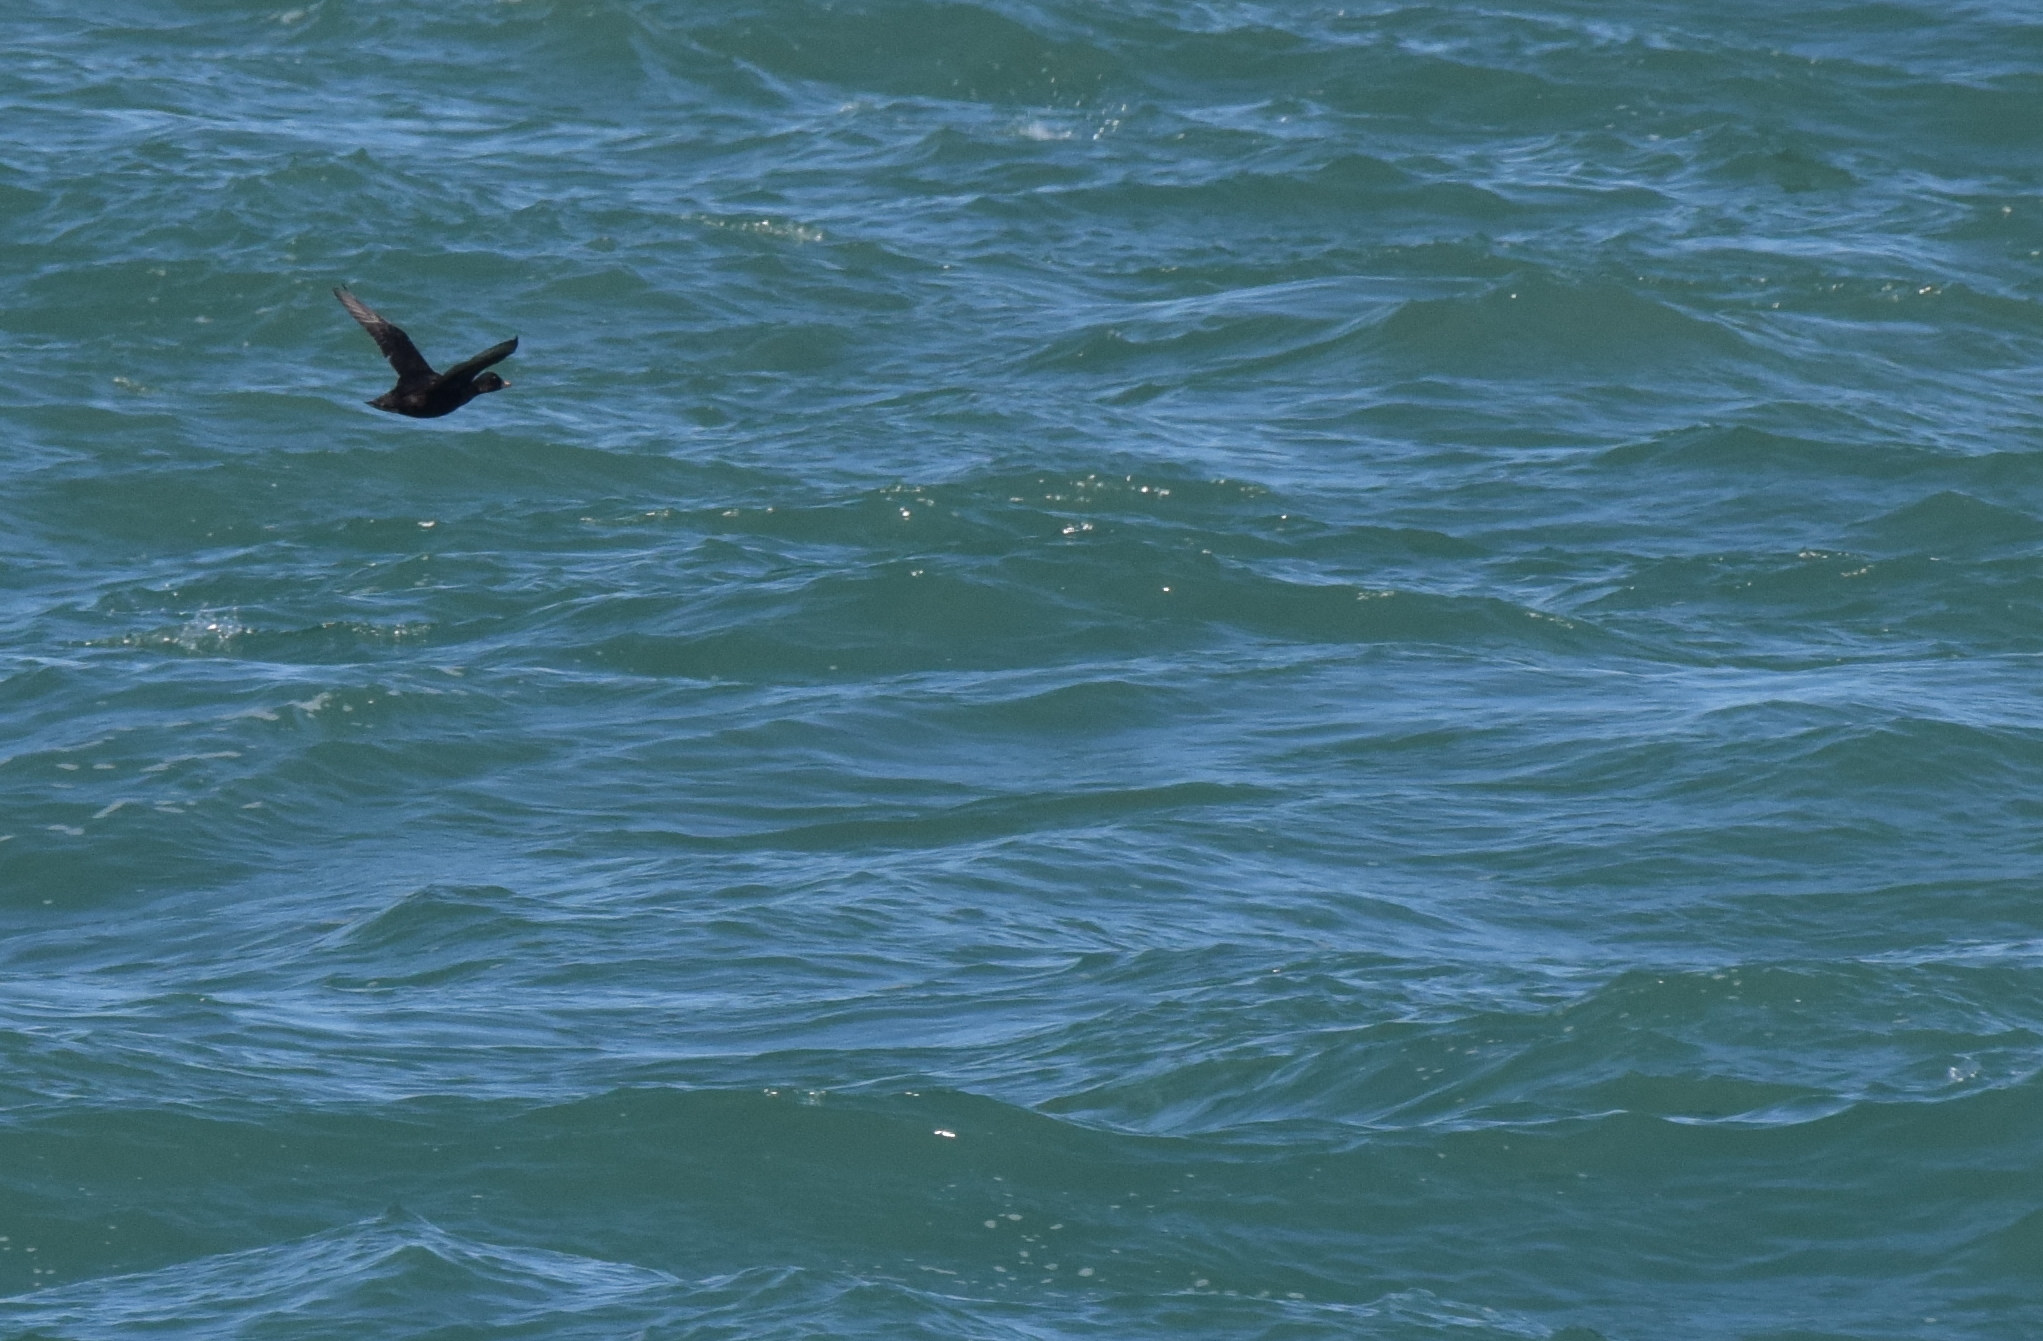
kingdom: Animalia
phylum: Chordata
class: Aves
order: Anseriformes
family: Anatidae
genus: Melanitta
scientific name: Melanitta nigra
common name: Common scoter
